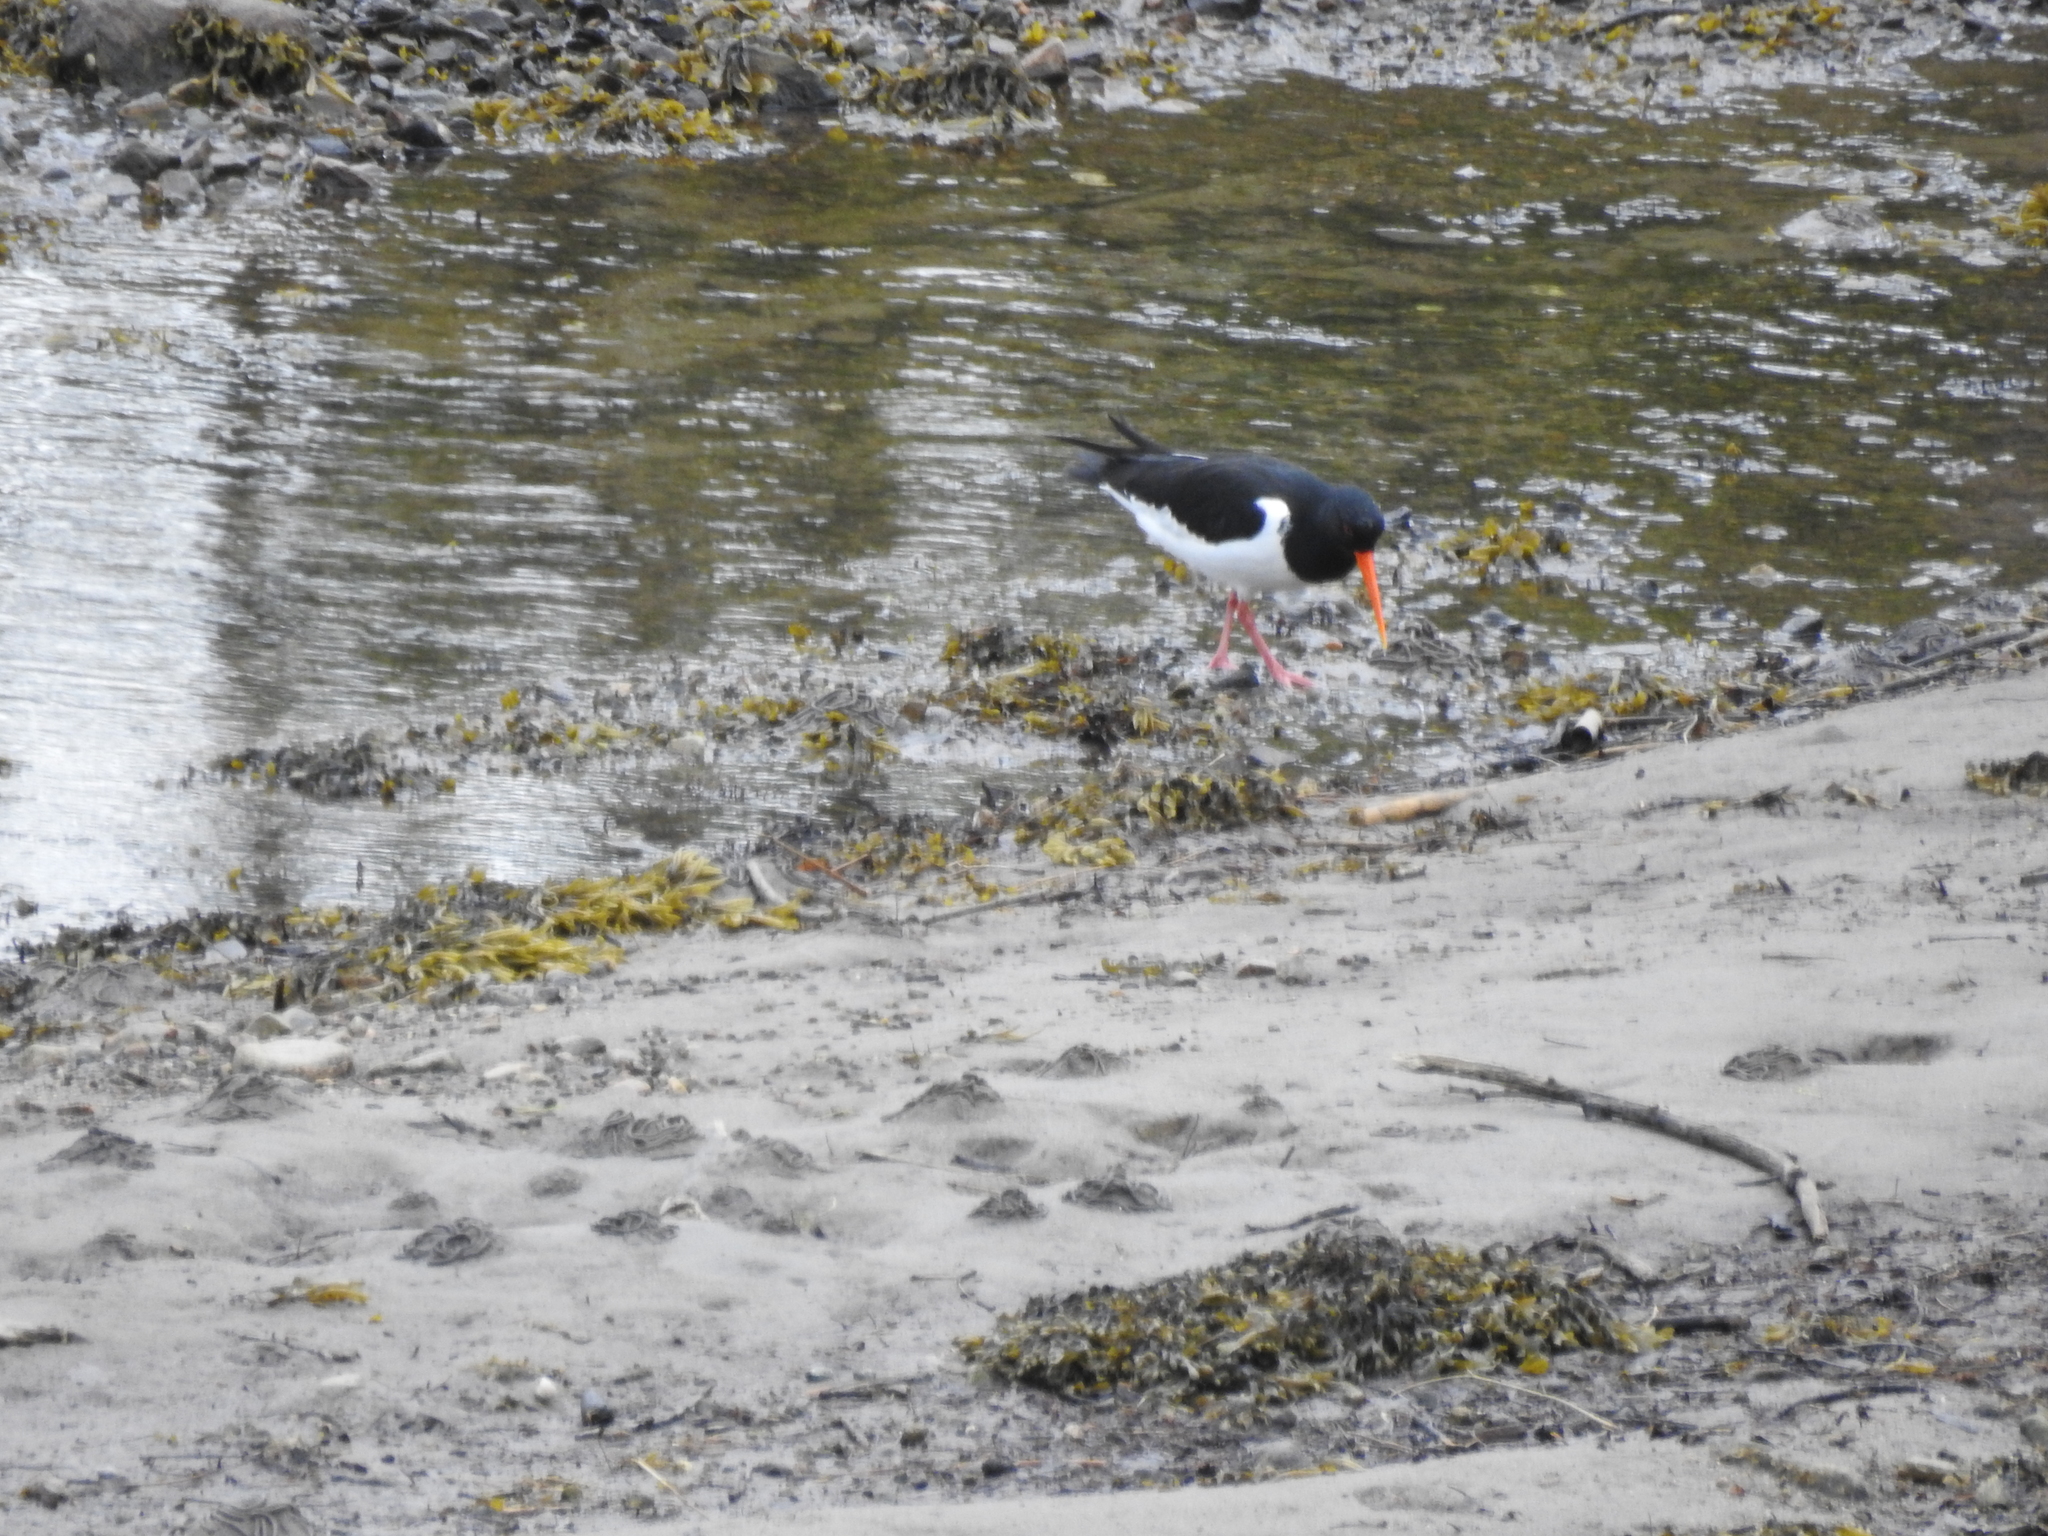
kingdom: Animalia
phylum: Chordata
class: Aves
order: Charadriiformes
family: Haematopodidae
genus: Haematopus
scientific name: Haematopus ostralegus
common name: Eurasian oystercatcher
